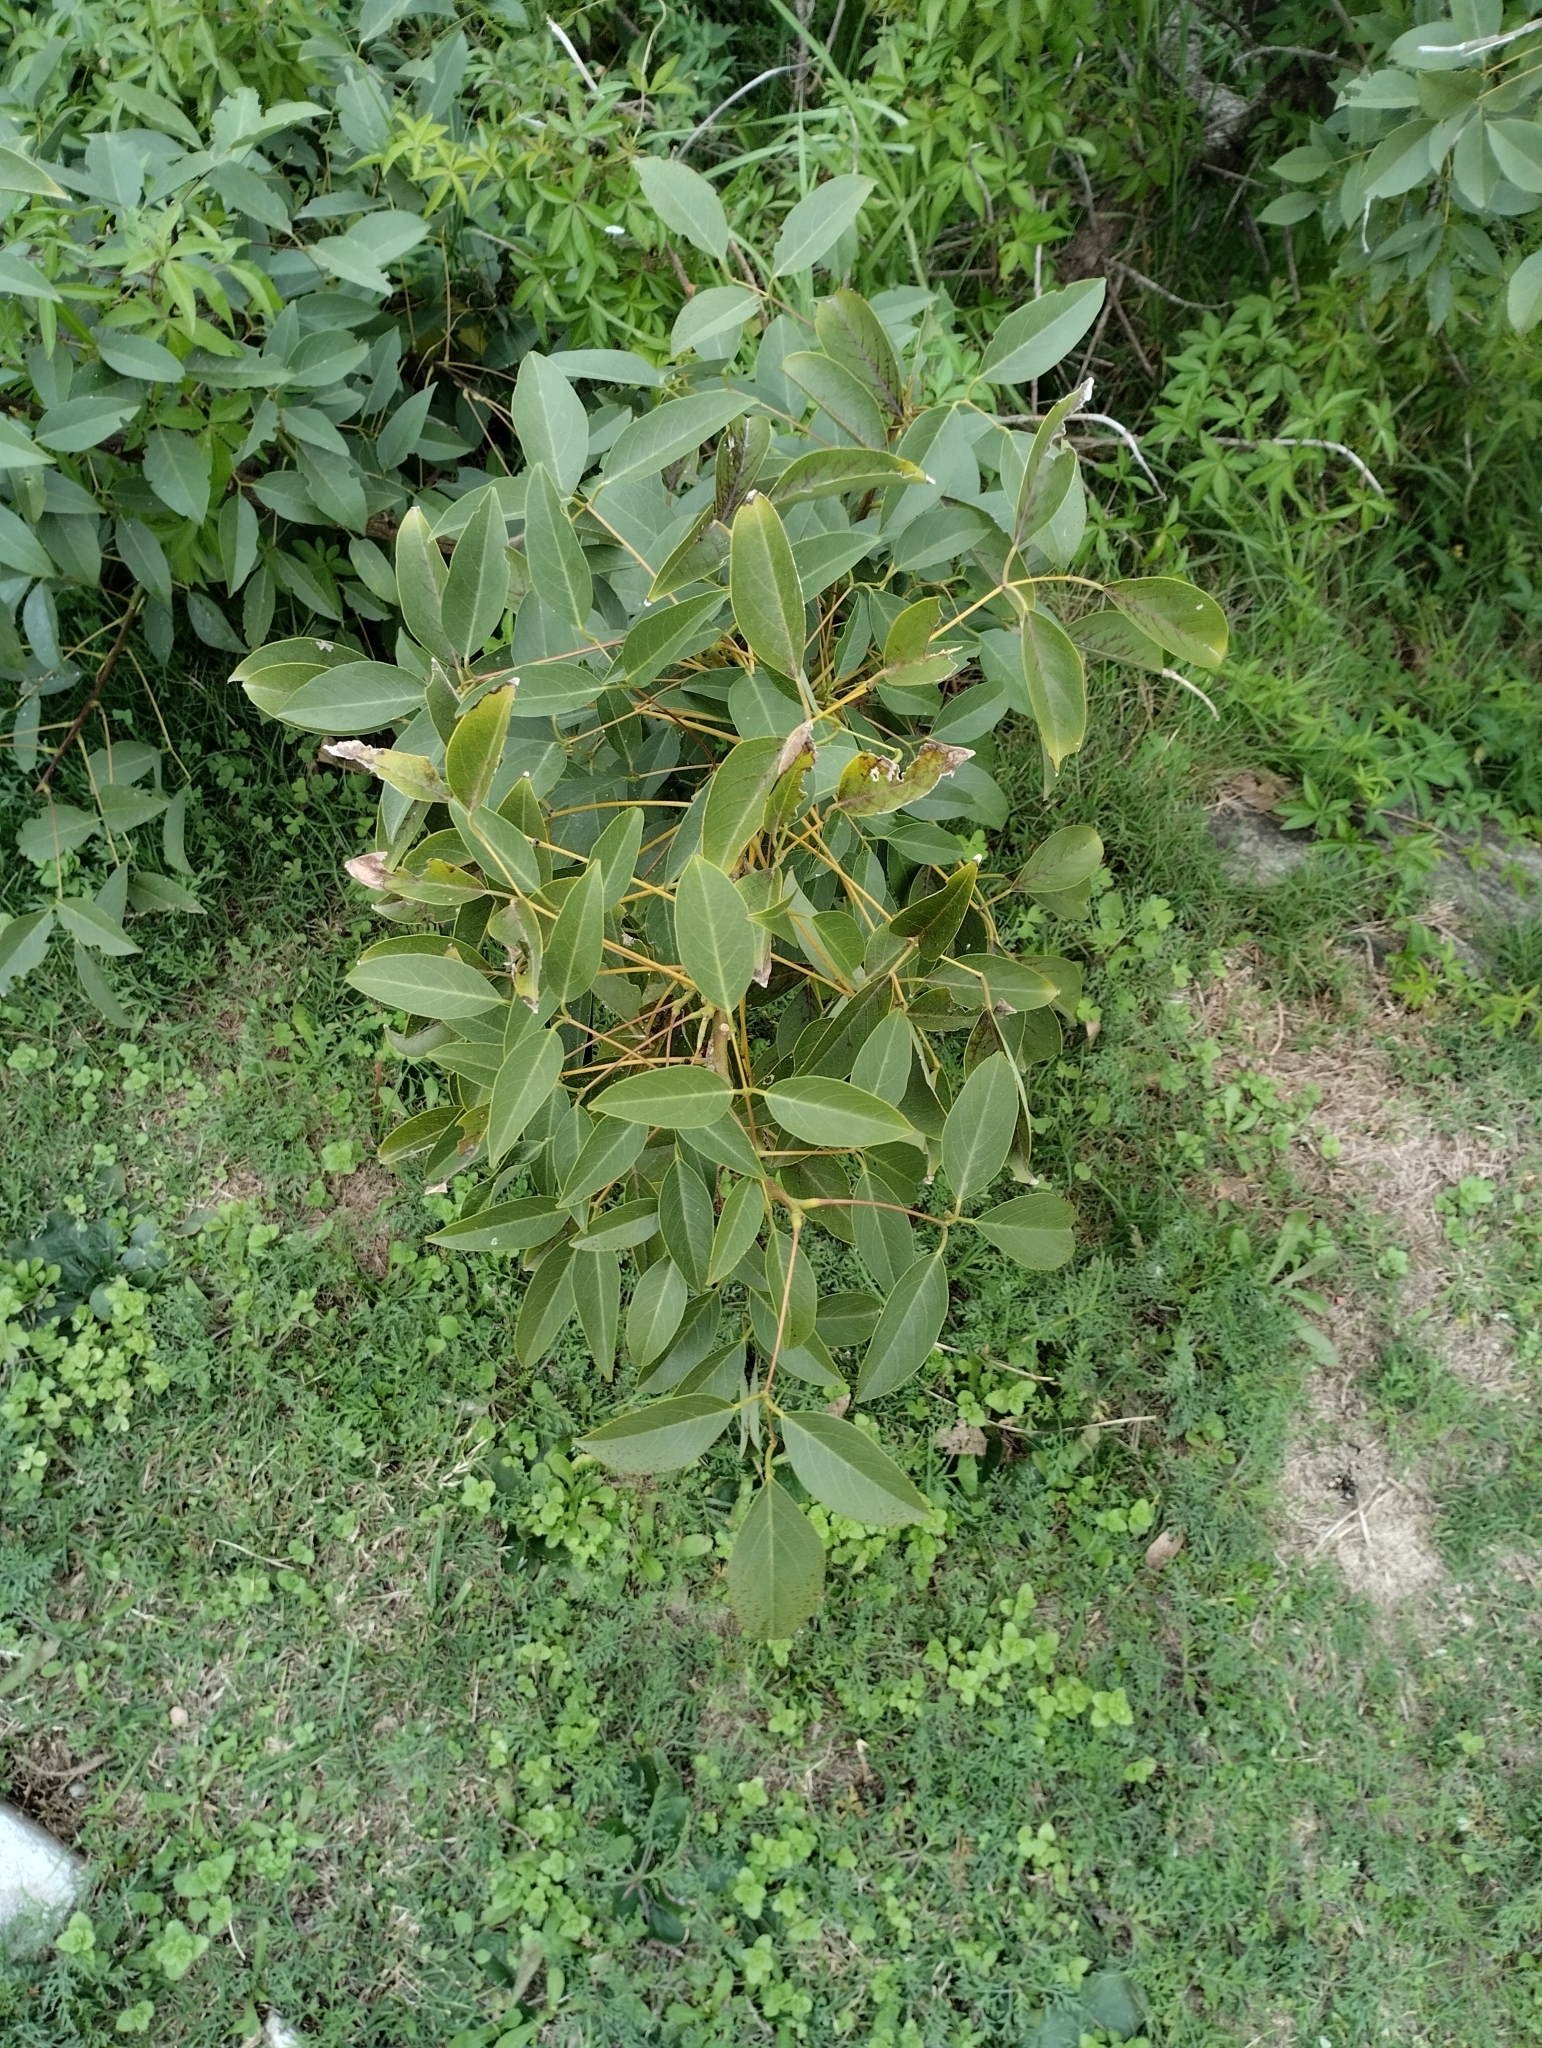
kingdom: Plantae
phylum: Tracheophyta
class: Magnoliopsida
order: Fabales
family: Fabaceae
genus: Erythrina
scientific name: Erythrina crista-galli
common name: Cockspur coral tree
